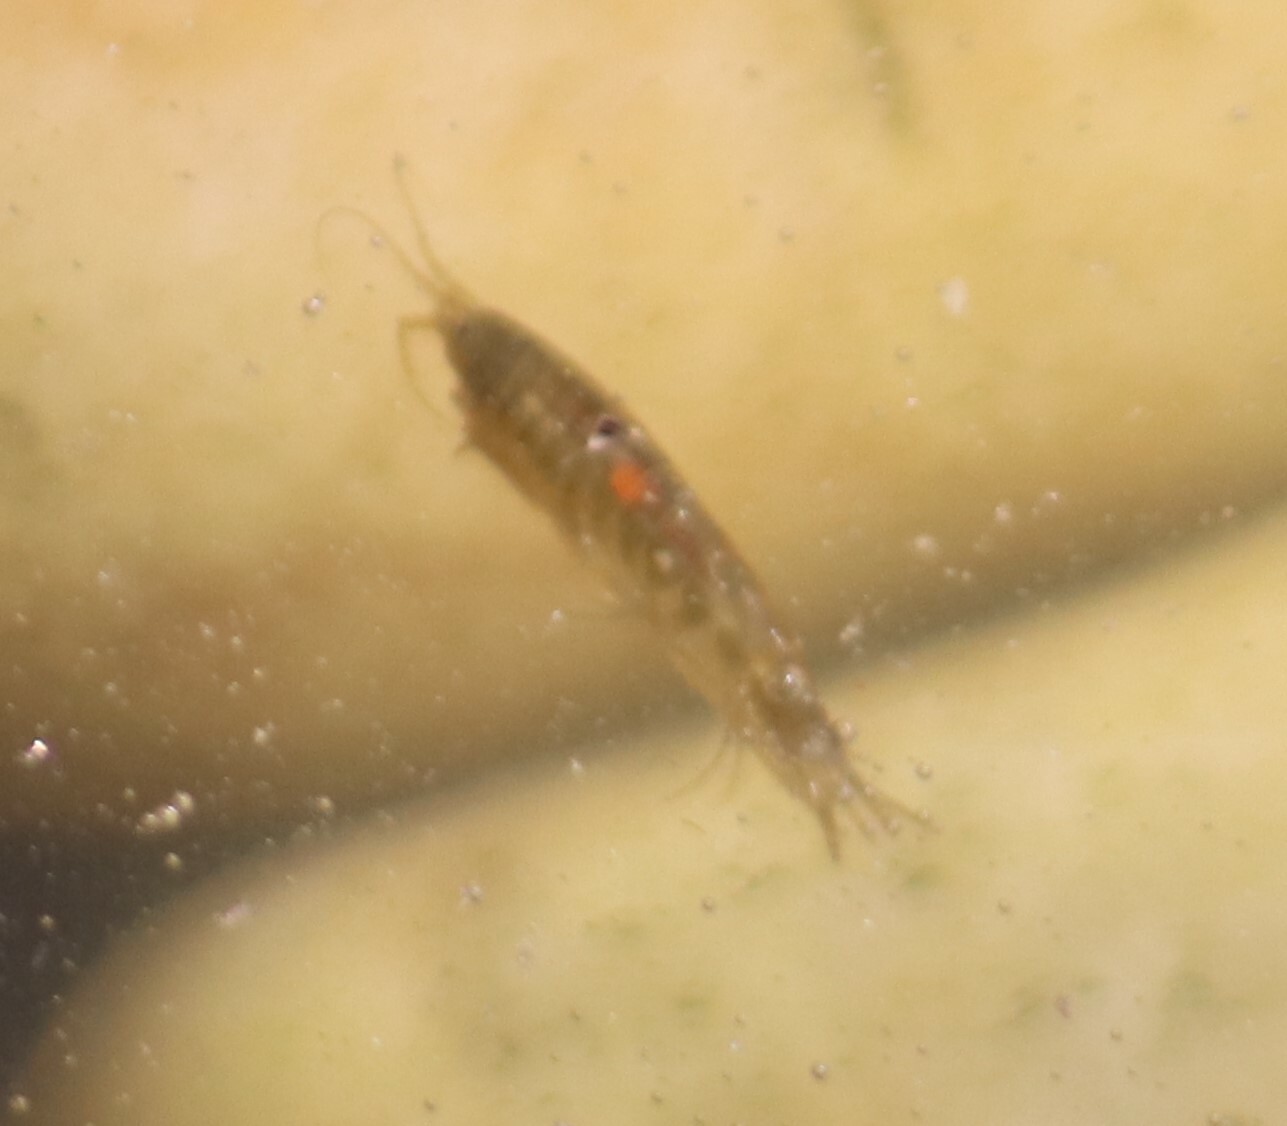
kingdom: Animalia
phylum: Arthropoda
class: Malacostraca
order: Amphipoda
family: Gammaridae
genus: Gammarus
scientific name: Gammarus lacustris
